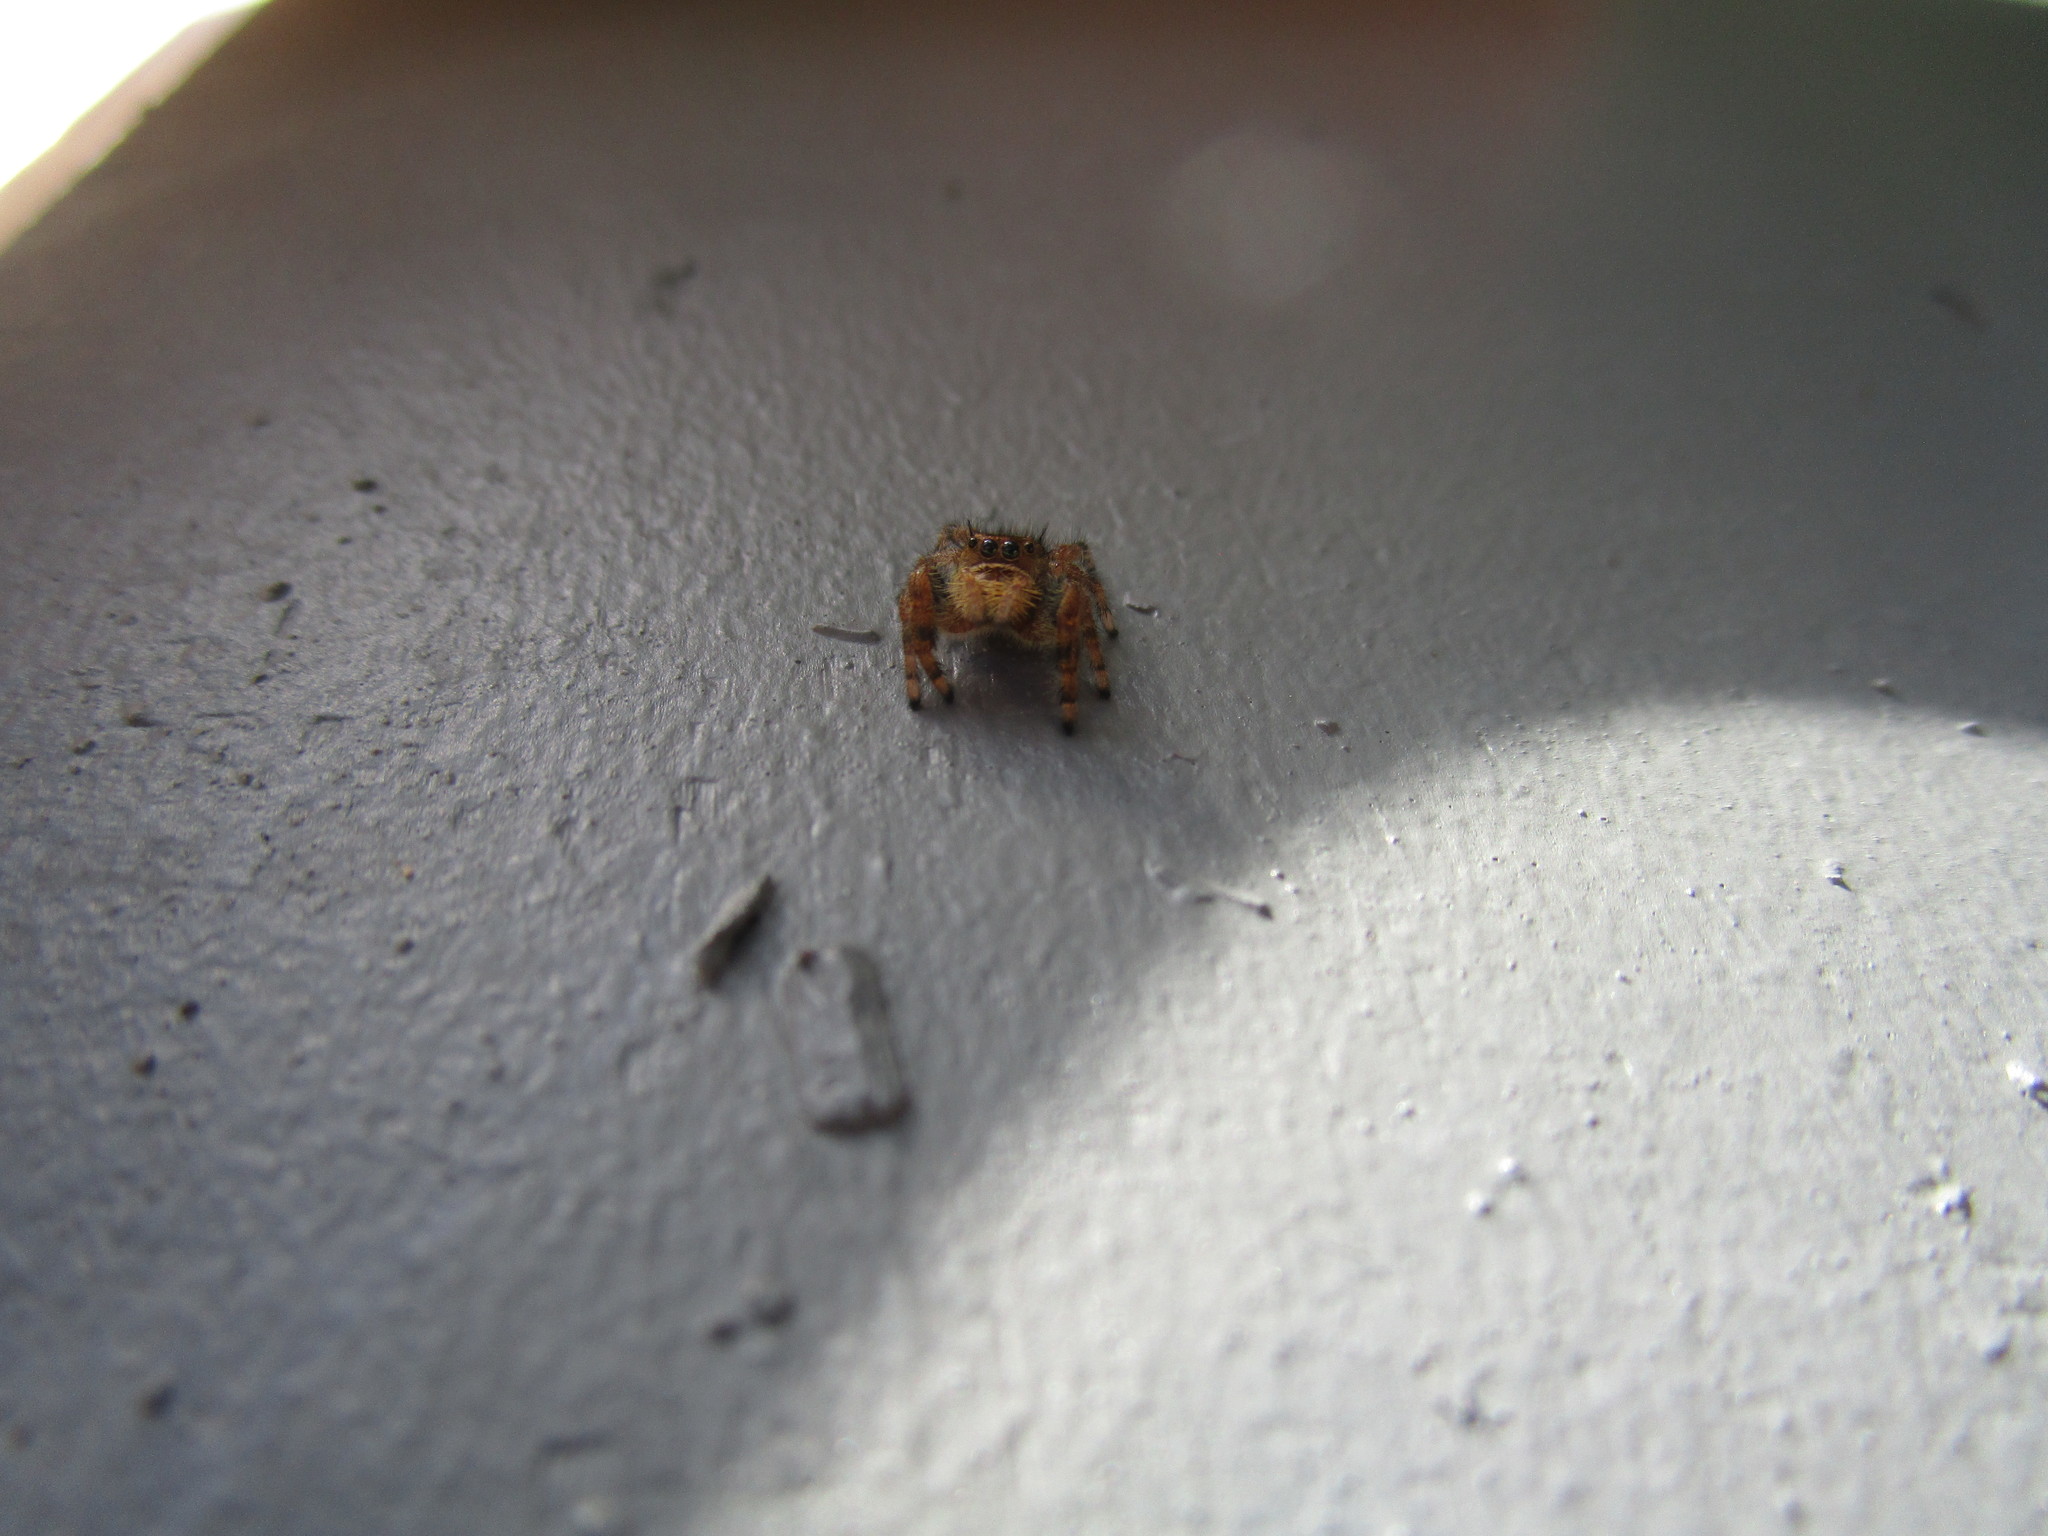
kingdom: Animalia
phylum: Arthropoda
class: Arachnida
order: Araneae
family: Salticidae
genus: Phidippus
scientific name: Phidippus audax
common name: Bold jumper
